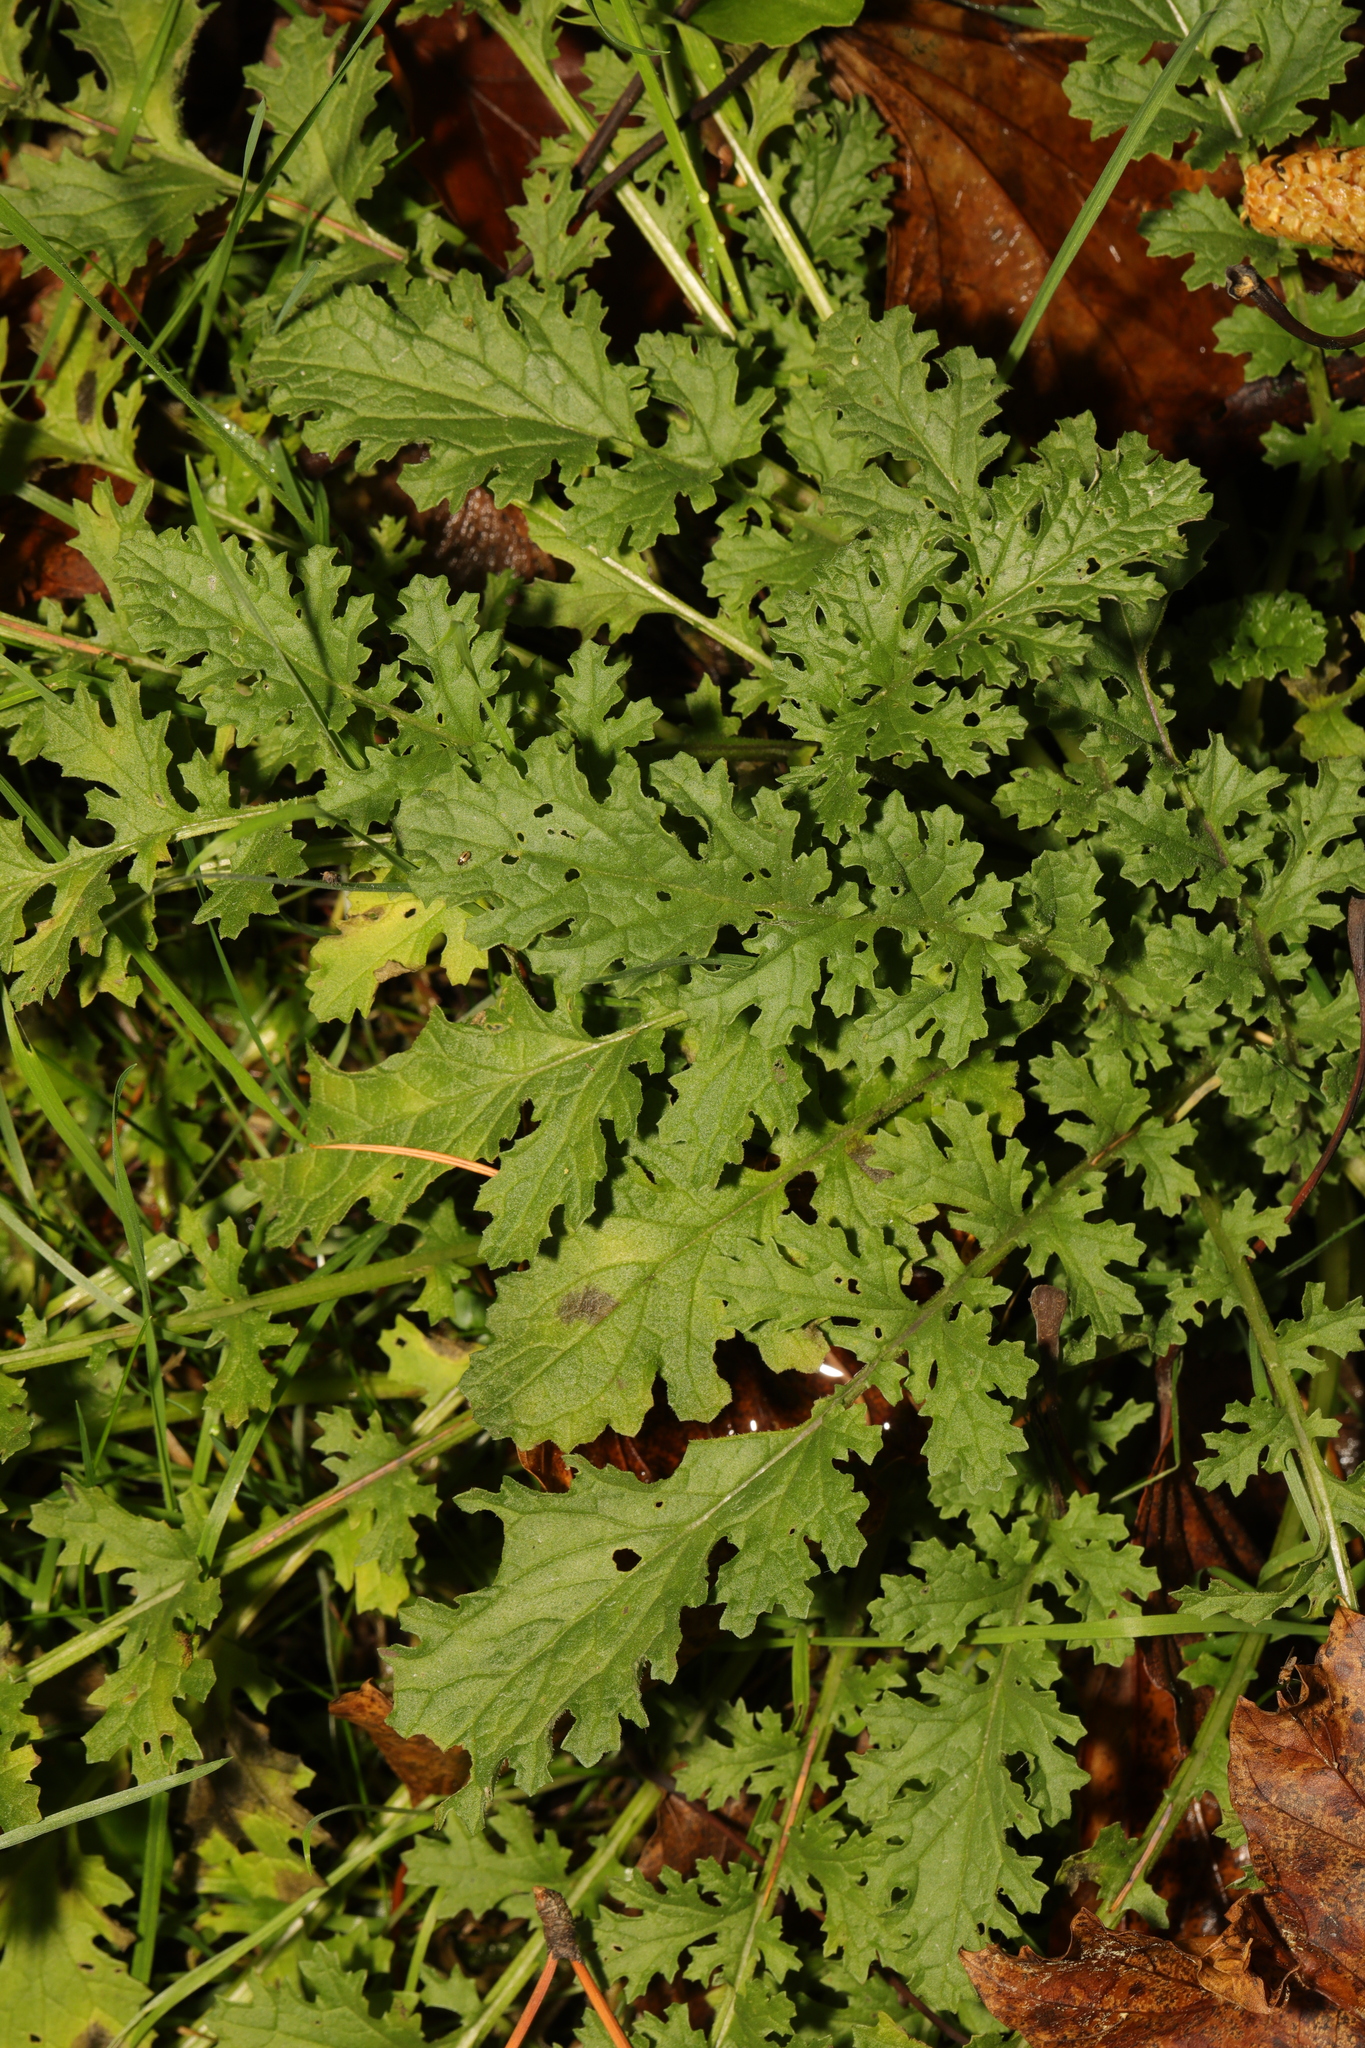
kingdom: Plantae
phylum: Tracheophyta
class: Magnoliopsida
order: Asterales
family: Asteraceae
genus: Jacobaea
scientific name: Jacobaea vulgaris
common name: Stinking willie
